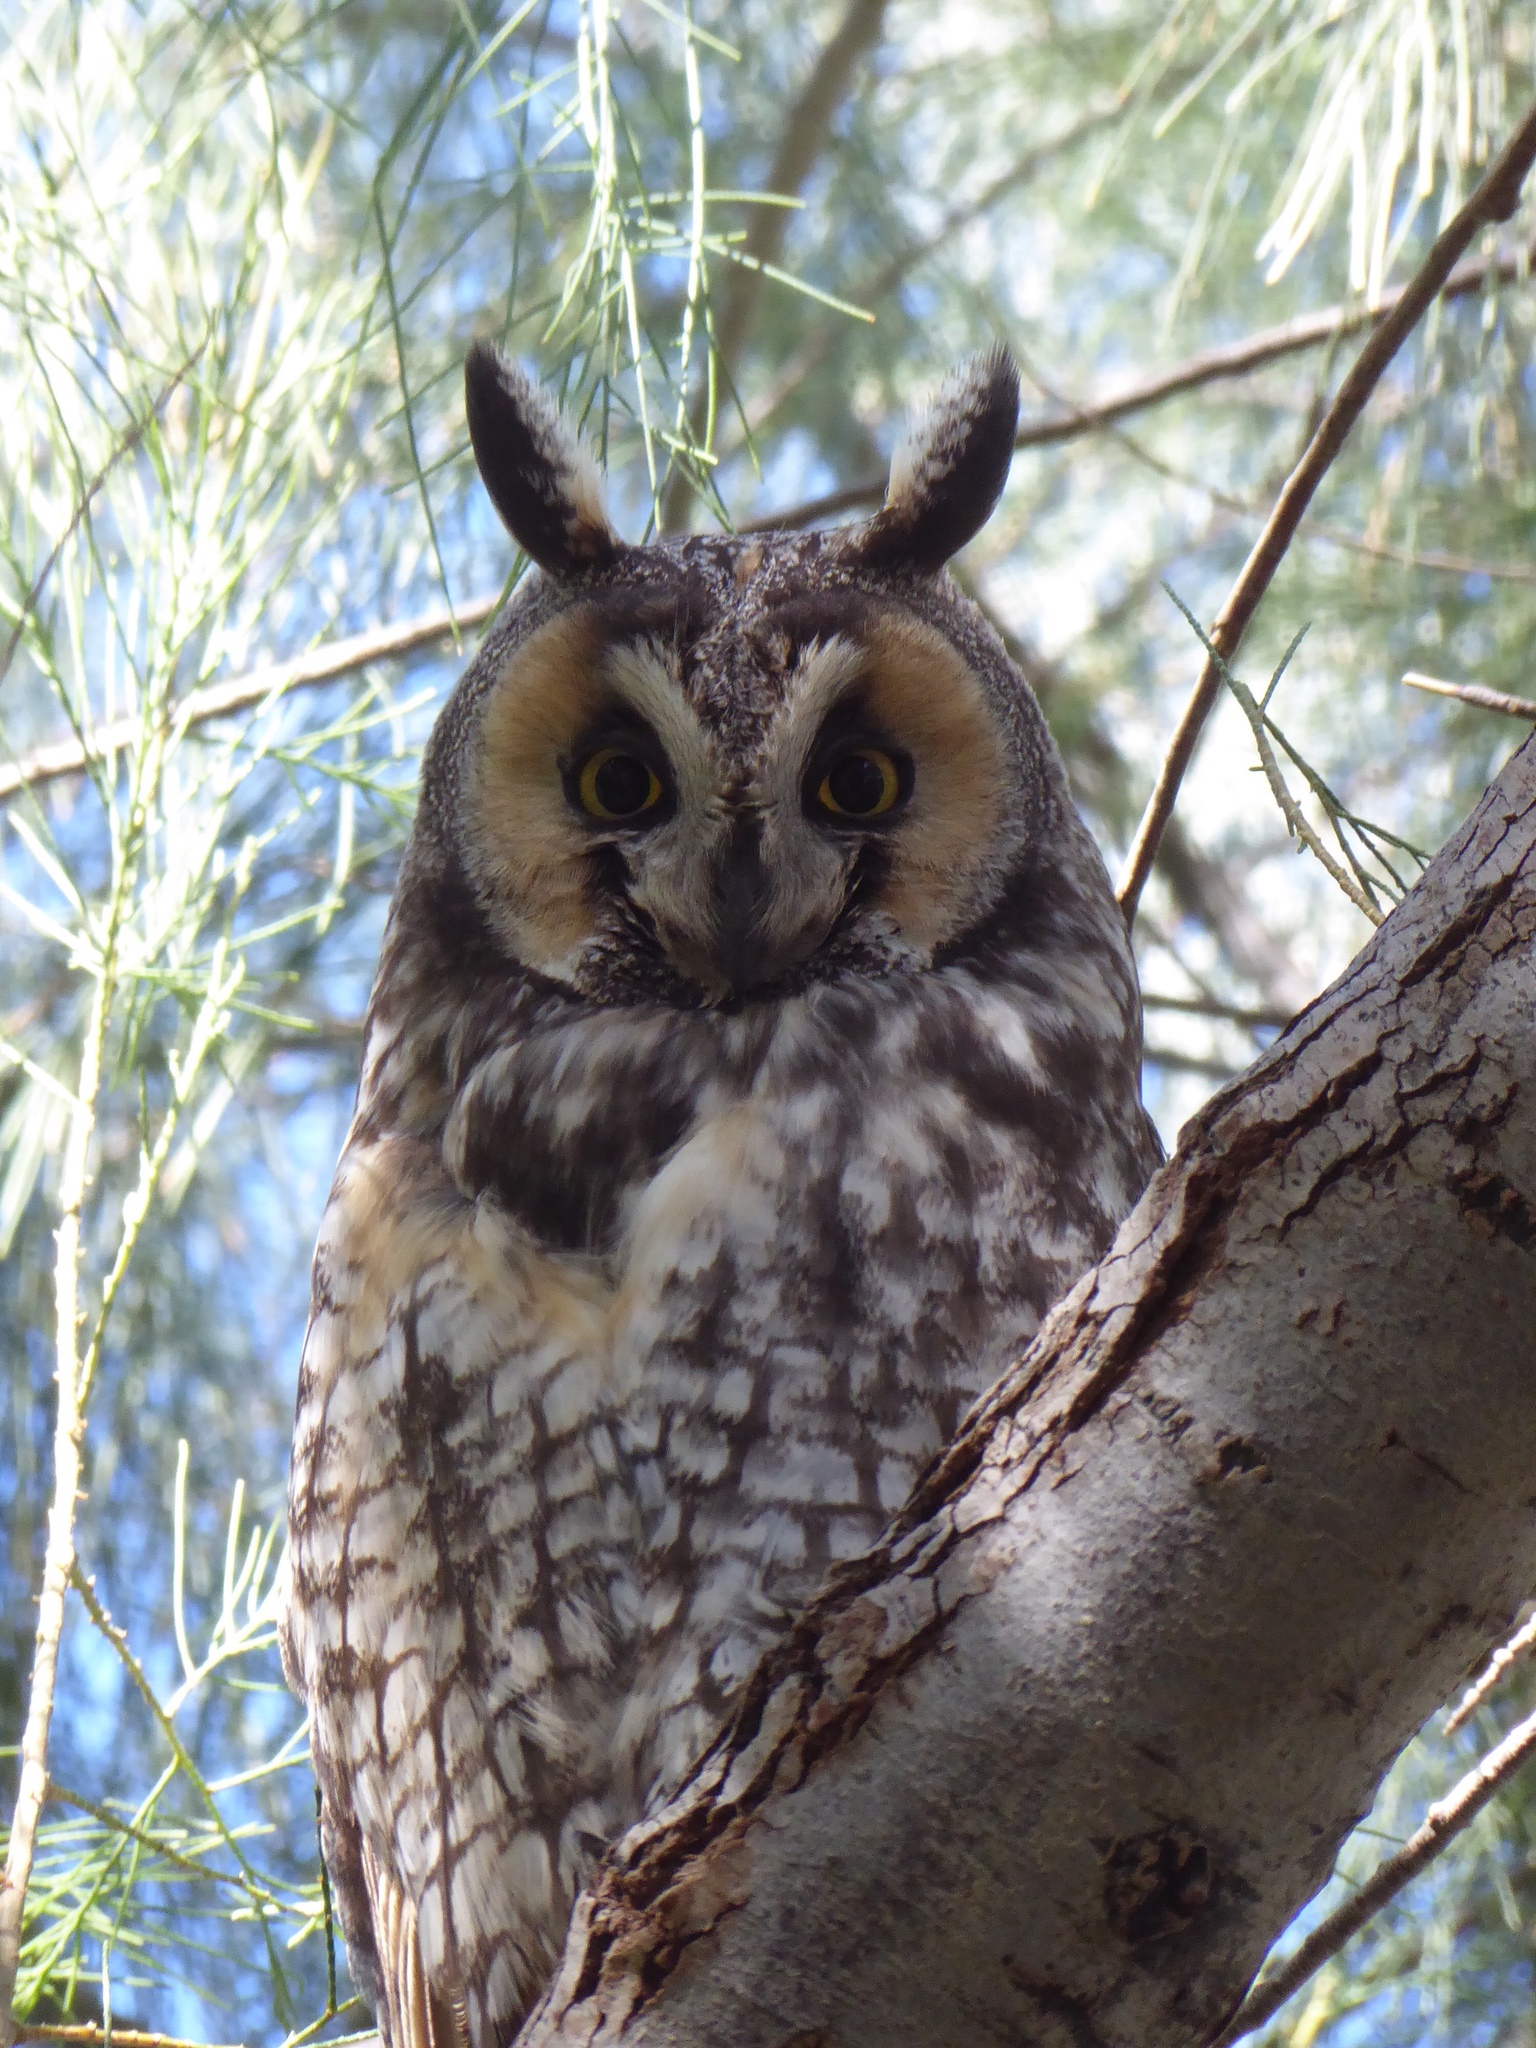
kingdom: Animalia
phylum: Chordata
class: Aves
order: Strigiformes
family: Strigidae
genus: Asio
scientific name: Asio otus
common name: Long-eared owl
